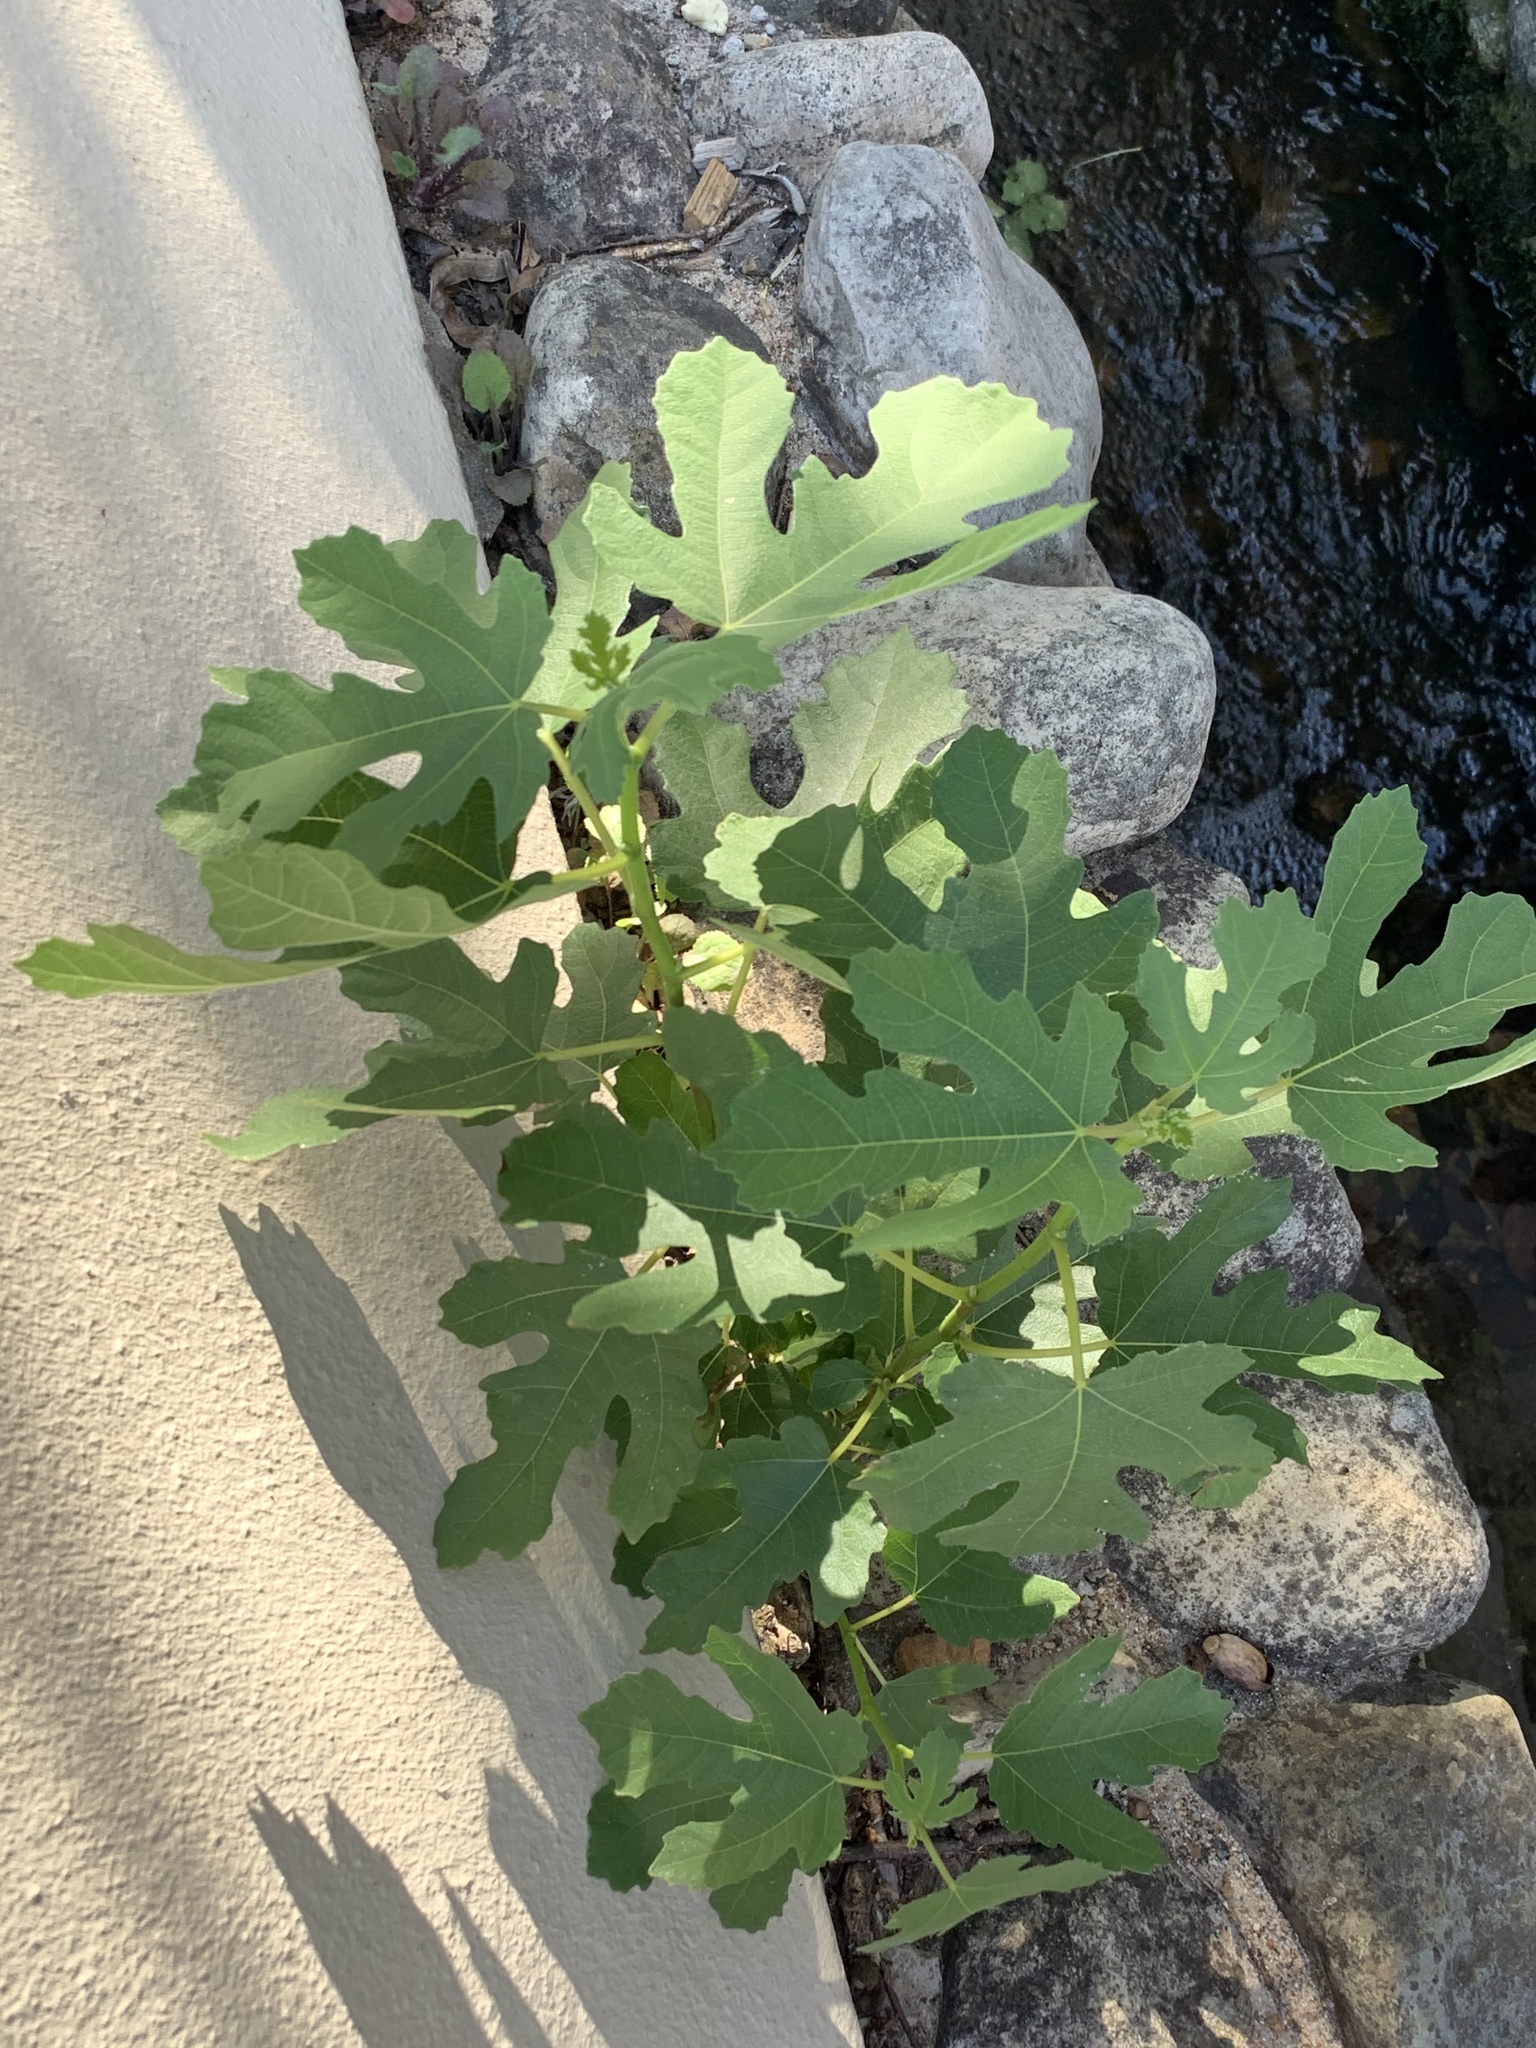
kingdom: Plantae
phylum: Tracheophyta
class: Magnoliopsida
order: Rosales
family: Moraceae
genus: Ficus
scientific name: Ficus carica
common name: Fig
